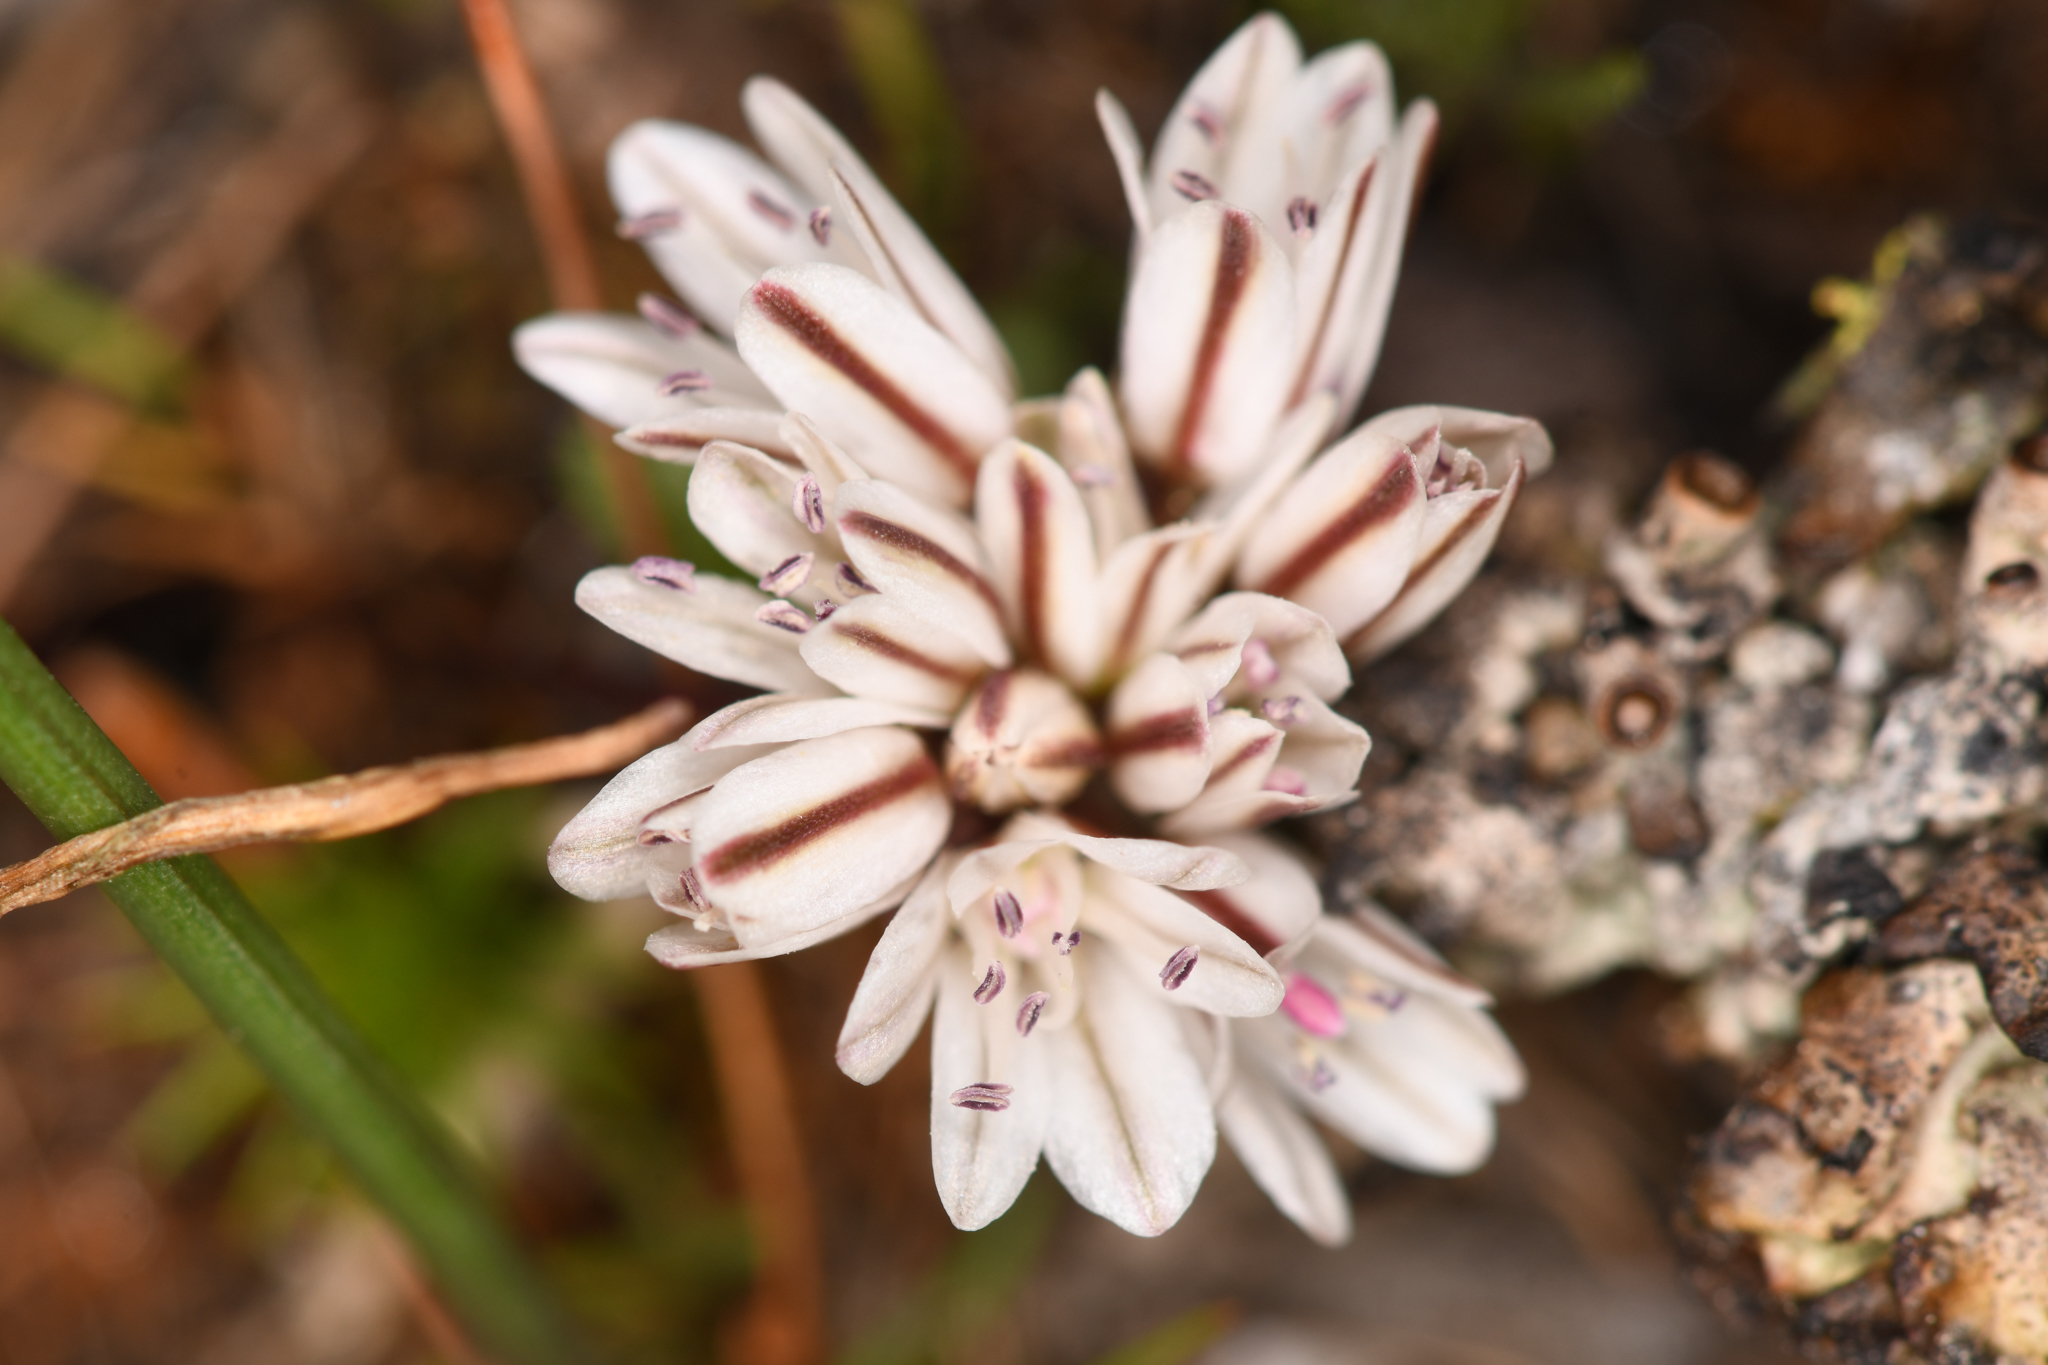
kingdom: Plantae
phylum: Tracheophyta
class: Liliopsida
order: Asparagales
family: Amaryllidaceae
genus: Allium
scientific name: Allium obtusum
